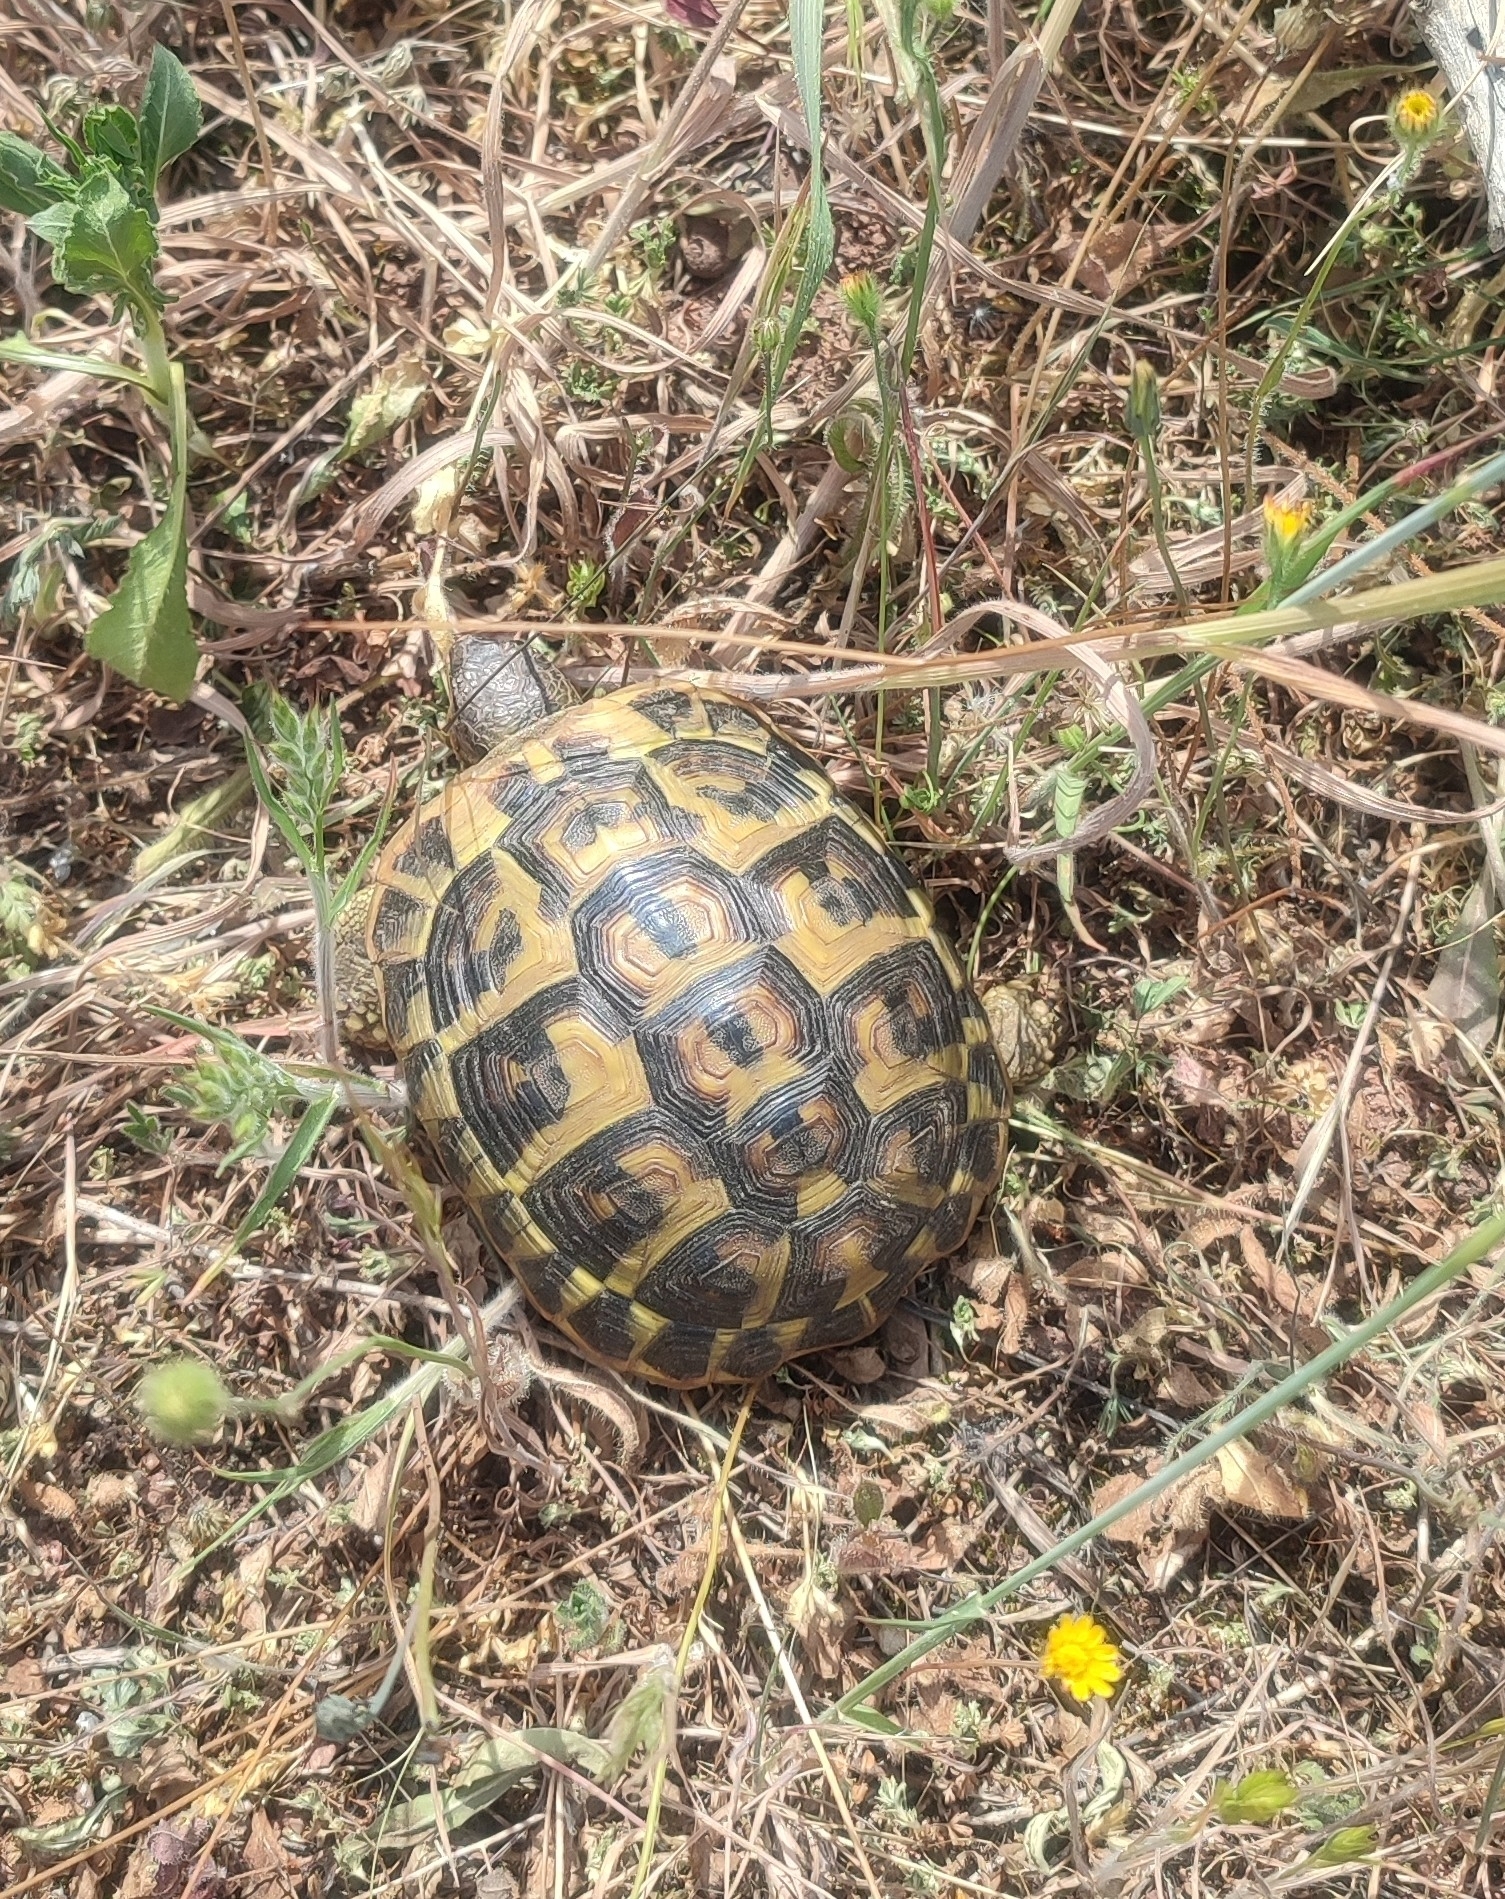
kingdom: Animalia
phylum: Chordata
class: Testudines
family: Testudinidae
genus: Testudo
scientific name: Testudo hermanni
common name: Hermann's tortoise
